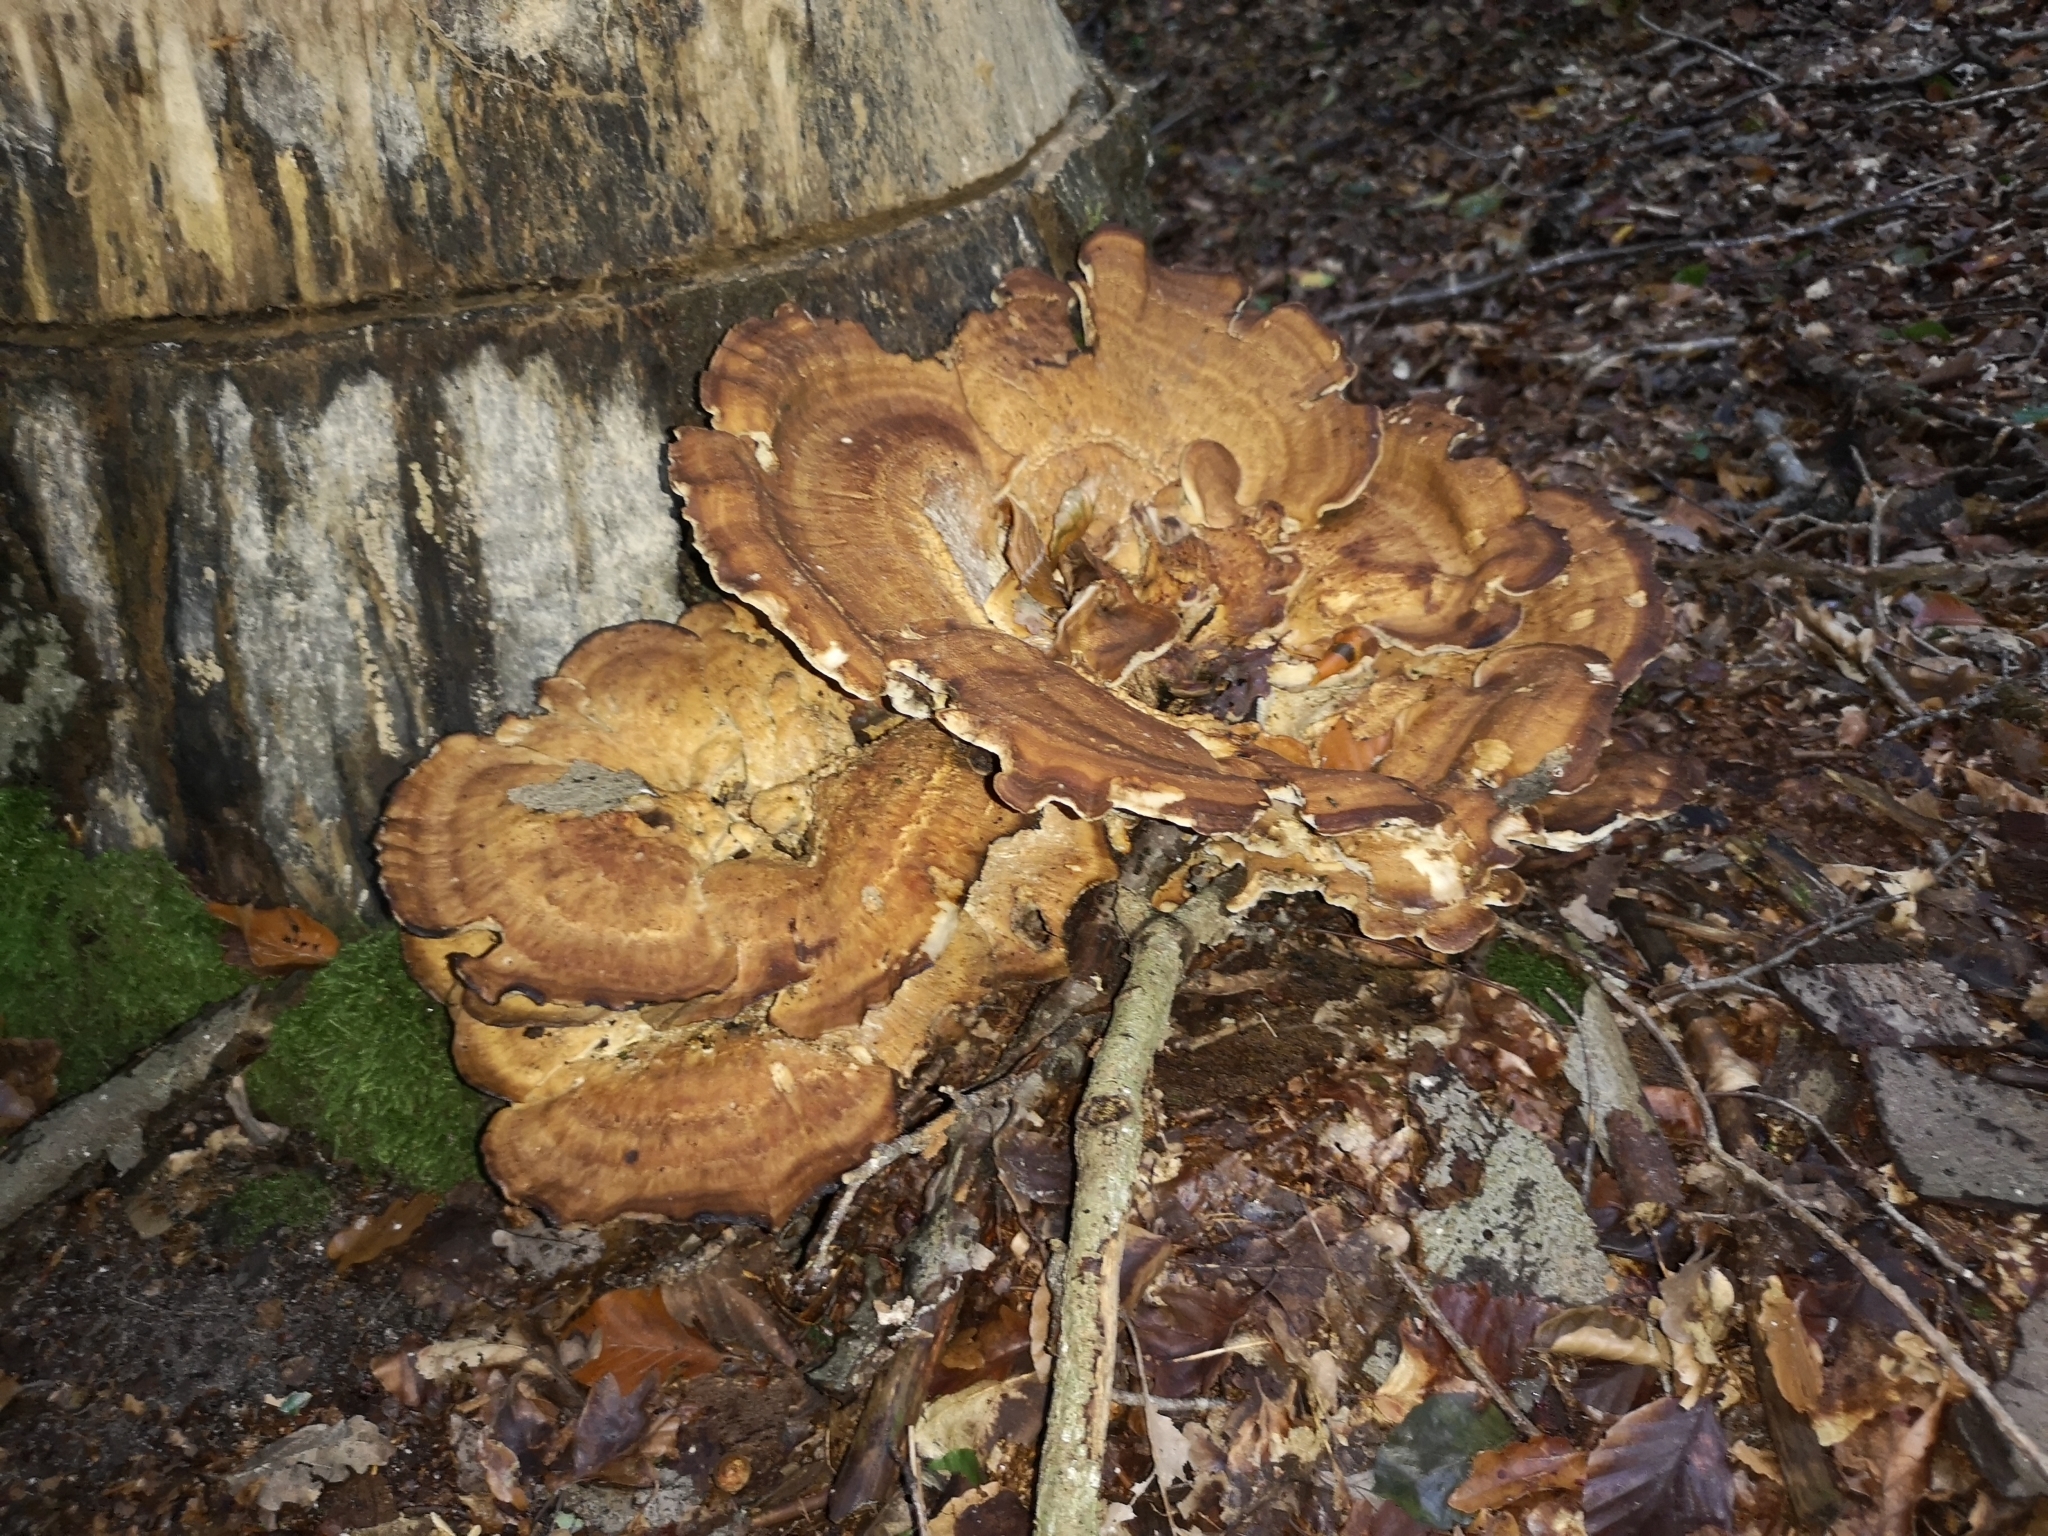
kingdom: Fungi
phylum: Basidiomycota
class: Agaricomycetes
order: Polyporales
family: Meripilaceae
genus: Meripilus
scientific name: Meripilus giganteus
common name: Giant polypore
